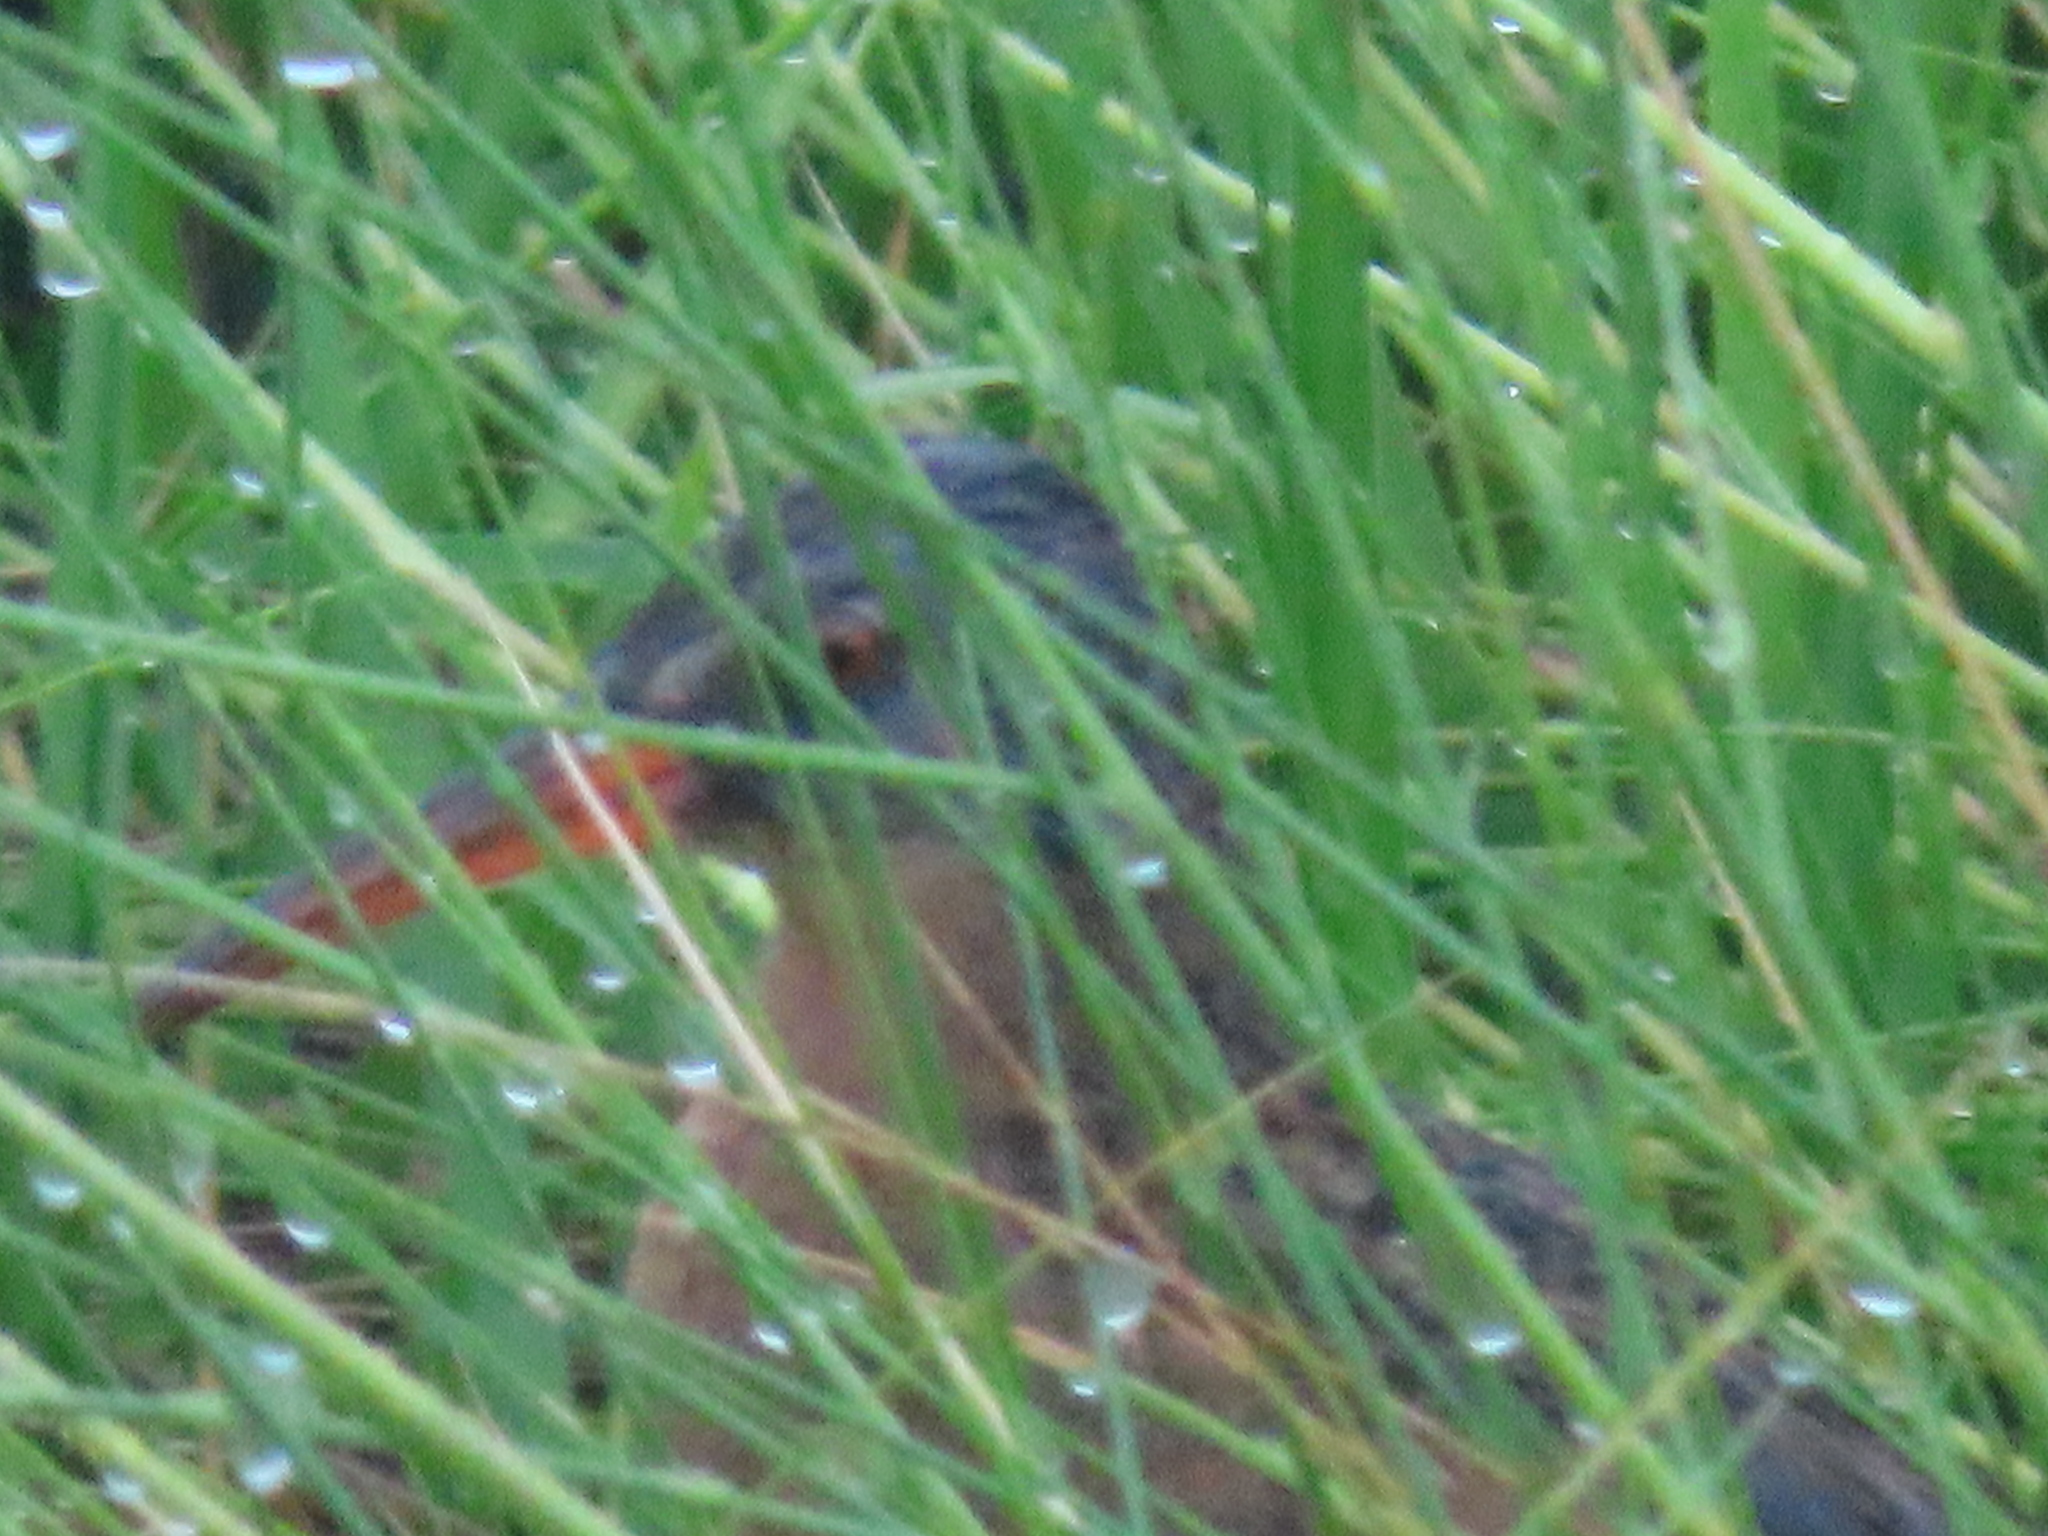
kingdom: Animalia
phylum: Chordata
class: Aves
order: Gruiformes
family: Rallidae
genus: Rallus
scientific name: Rallus limicola
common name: Virginia rail
